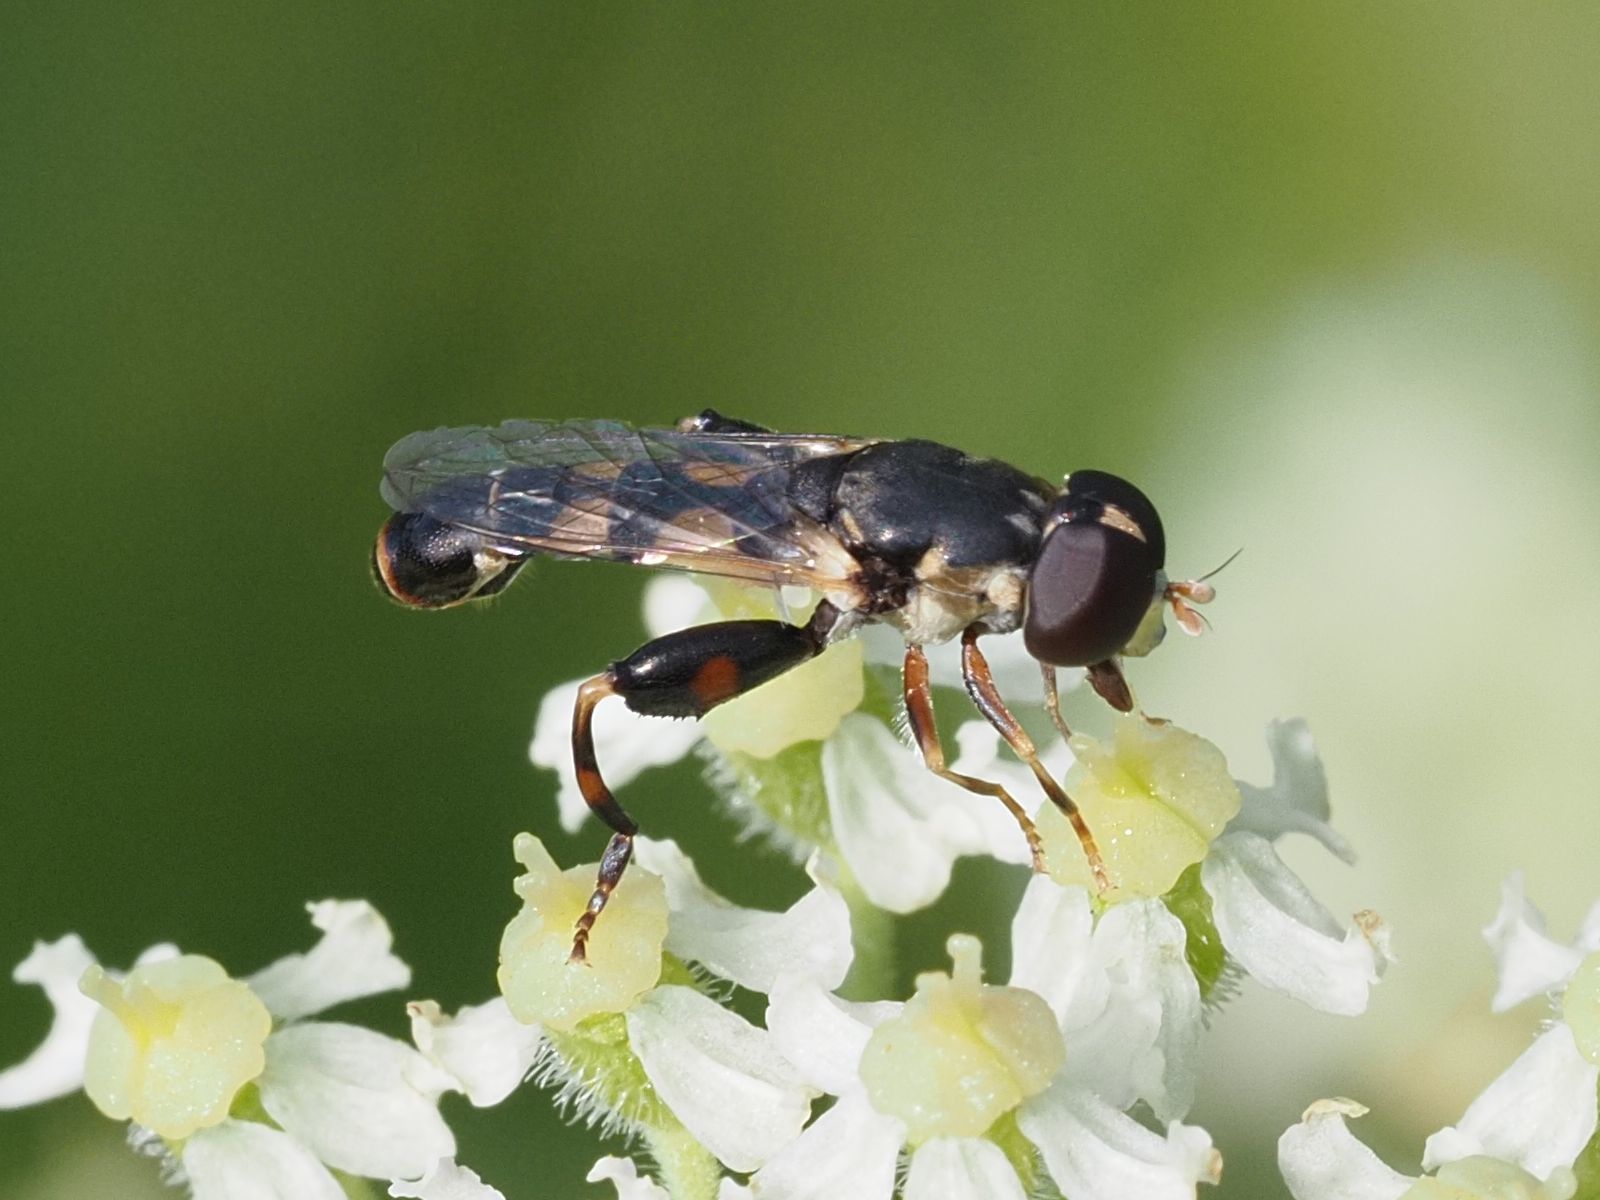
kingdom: Animalia
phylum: Arthropoda
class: Insecta
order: Diptera
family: Syrphidae
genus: Syritta
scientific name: Syritta pipiens
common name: Hover fly
